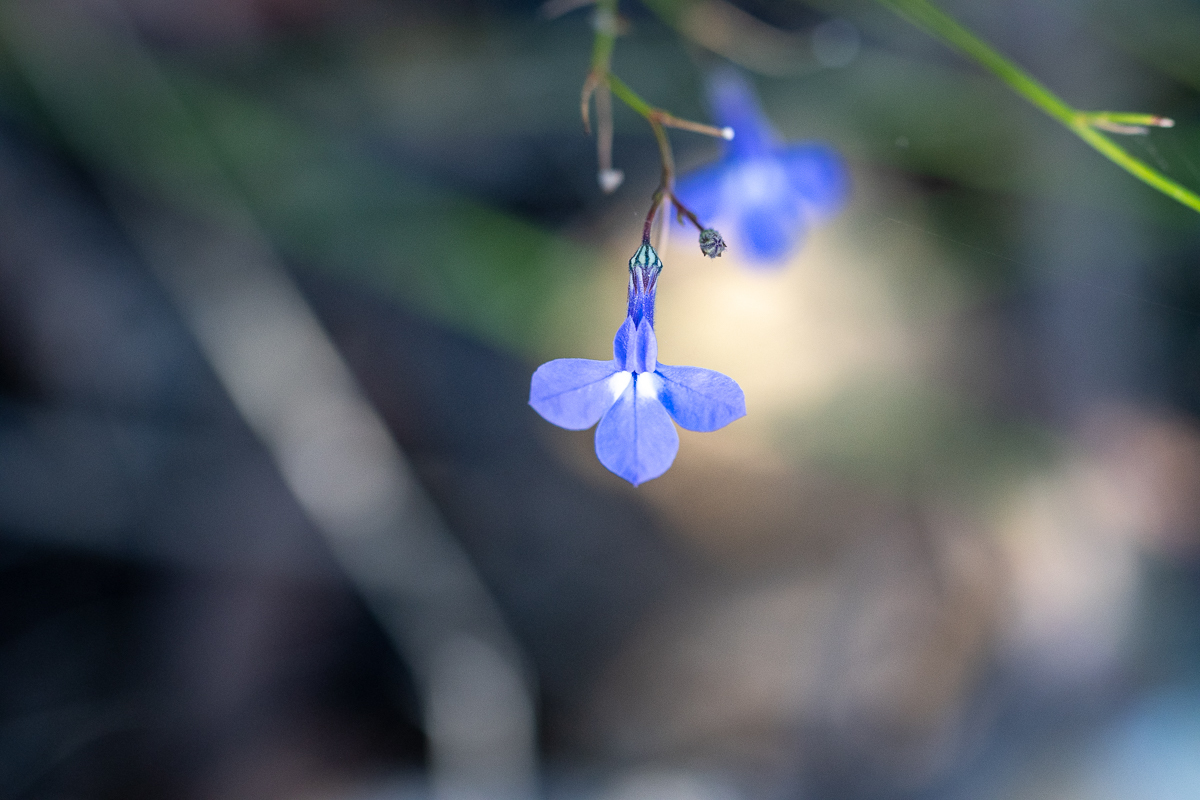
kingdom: Plantae
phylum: Tracheophyta
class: Magnoliopsida
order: Asterales
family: Campanulaceae
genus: Lobelia
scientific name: Lobelia setacea
